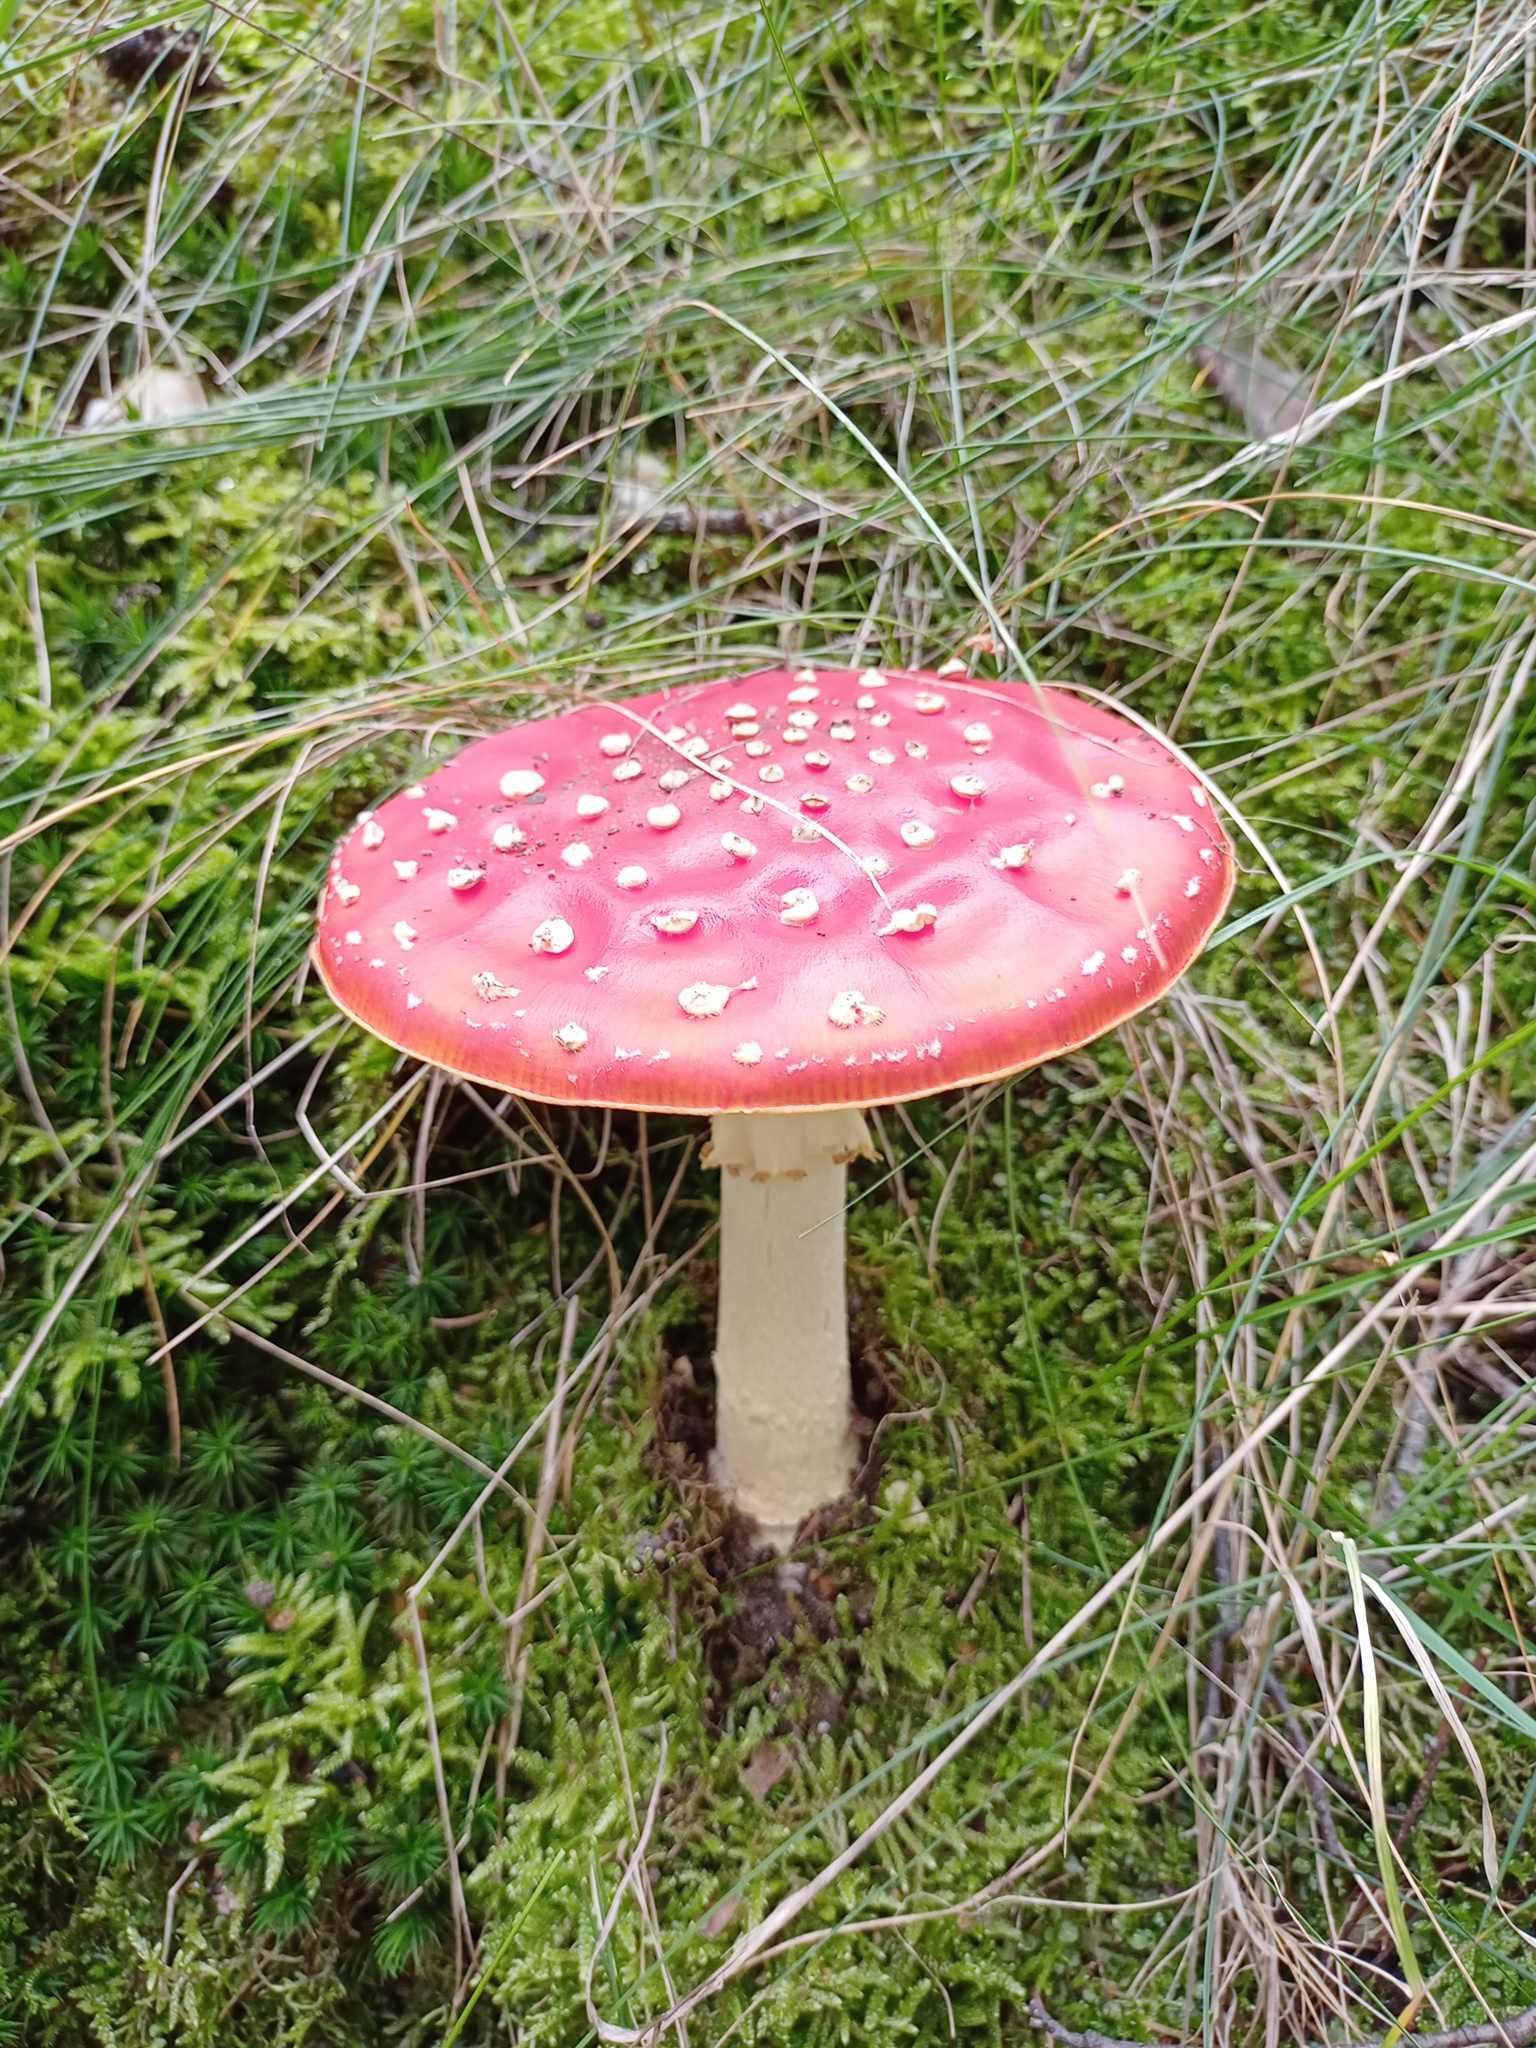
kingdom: Fungi
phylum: Basidiomycota
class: Agaricomycetes
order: Agaricales
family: Amanitaceae
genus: Amanita
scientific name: Amanita muscaria
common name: Fly agaric
